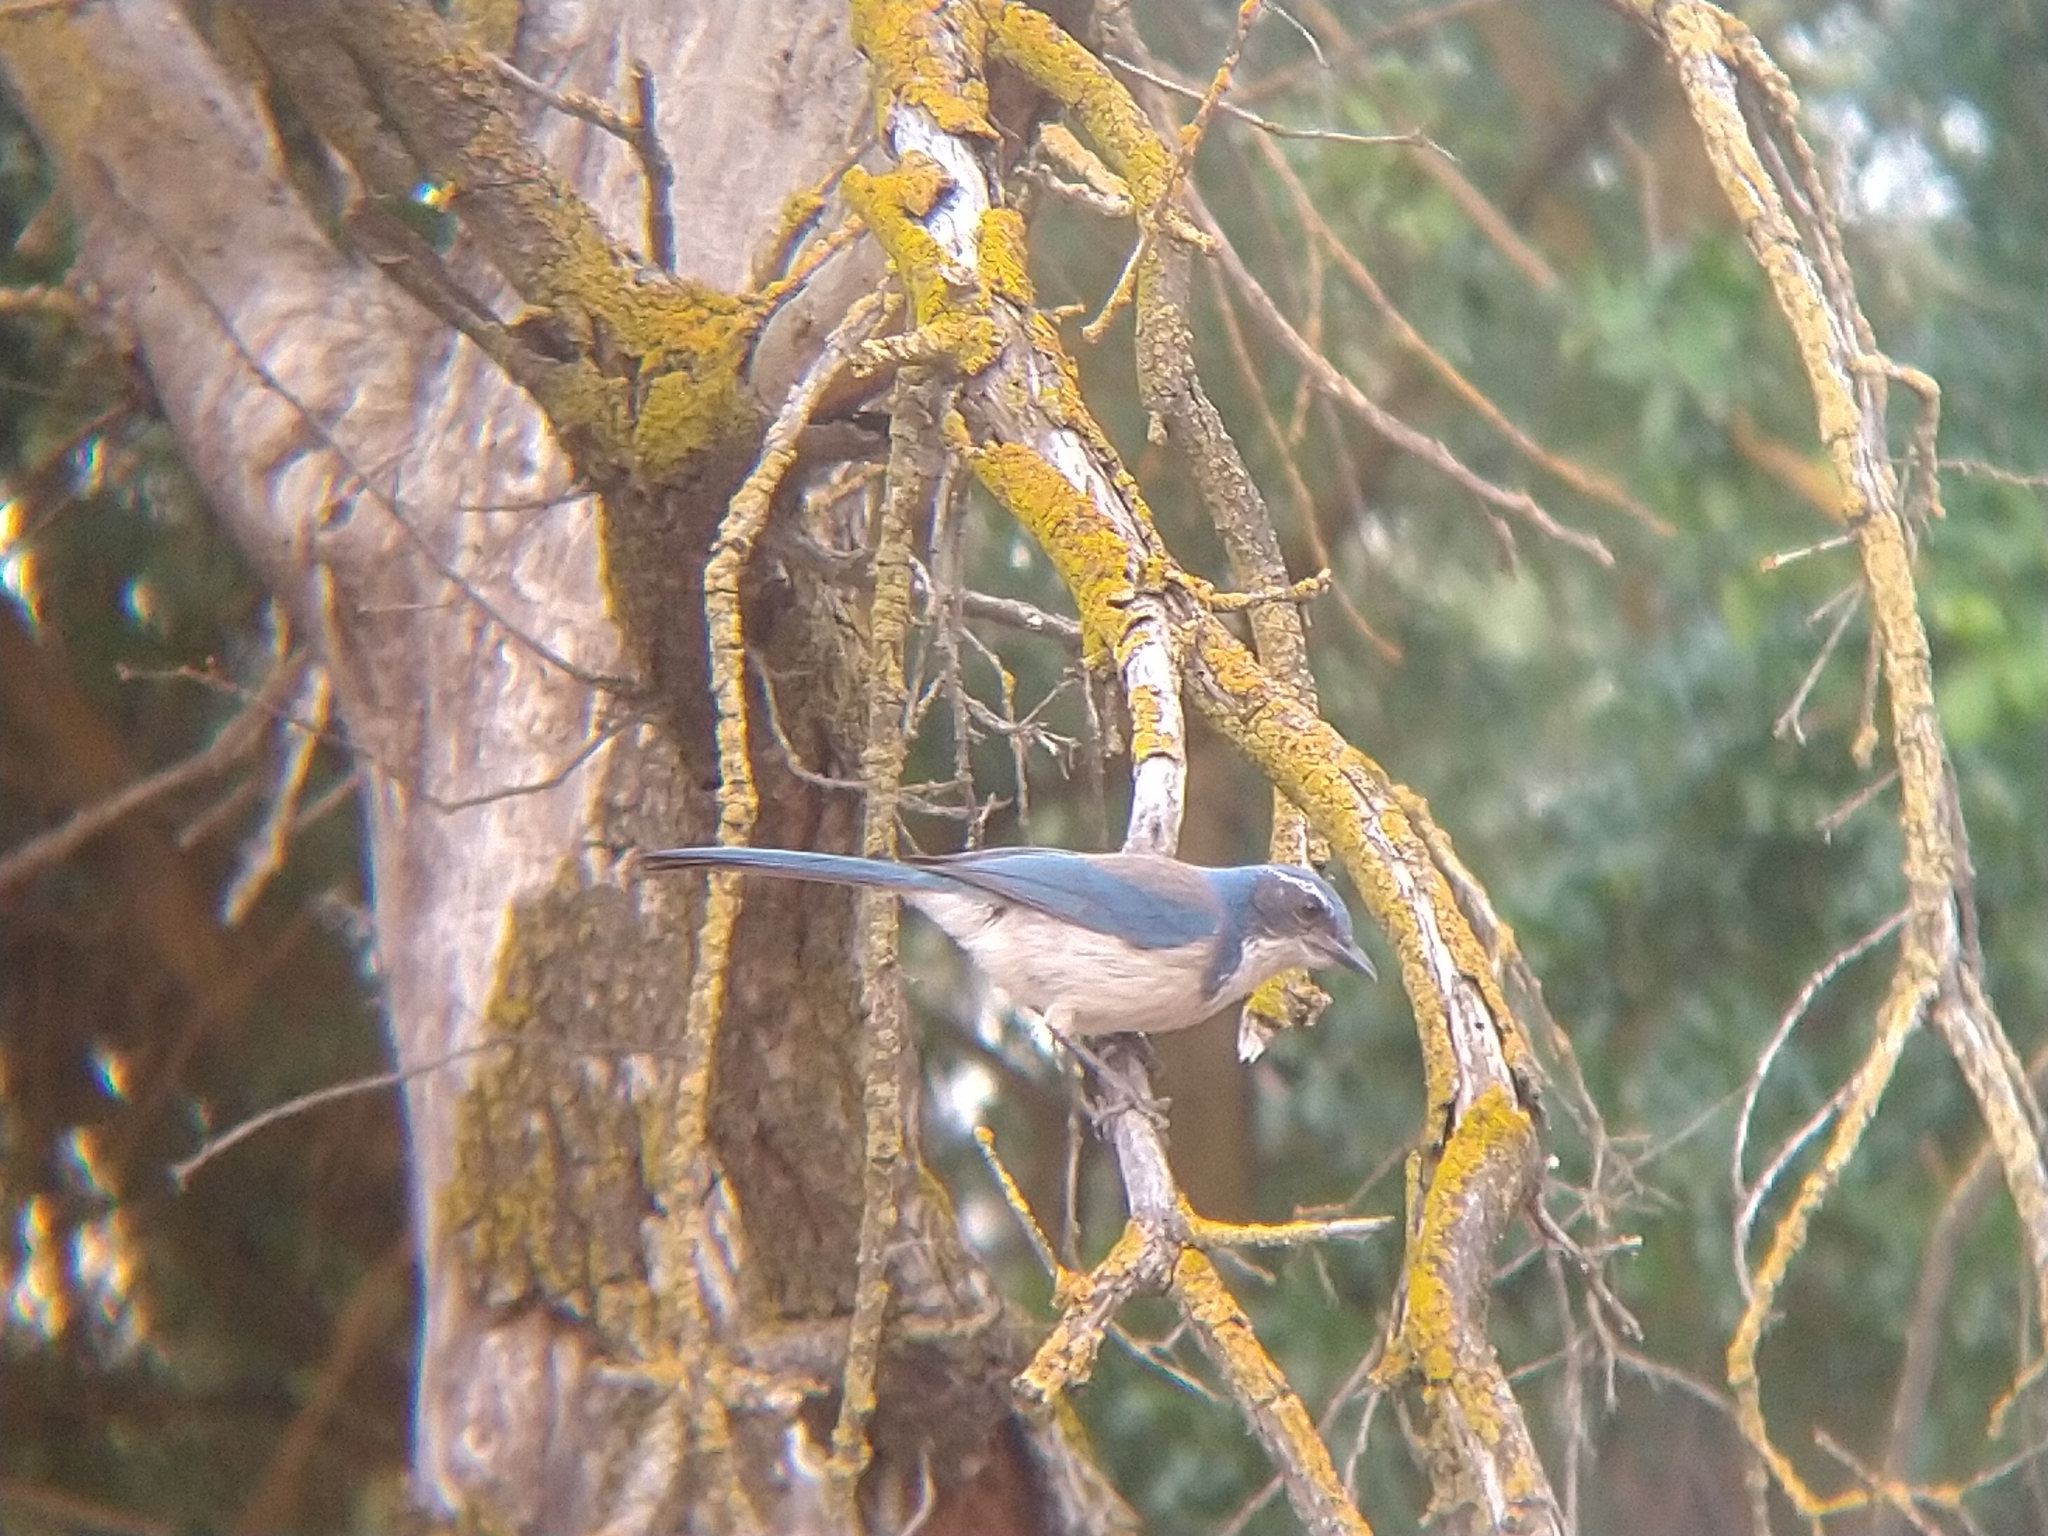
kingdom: Animalia
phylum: Chordata
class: Aves
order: Passeriformes
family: Corvidae
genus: Aphelocoma
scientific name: Aphelocoma californica
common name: California scrub-jay
